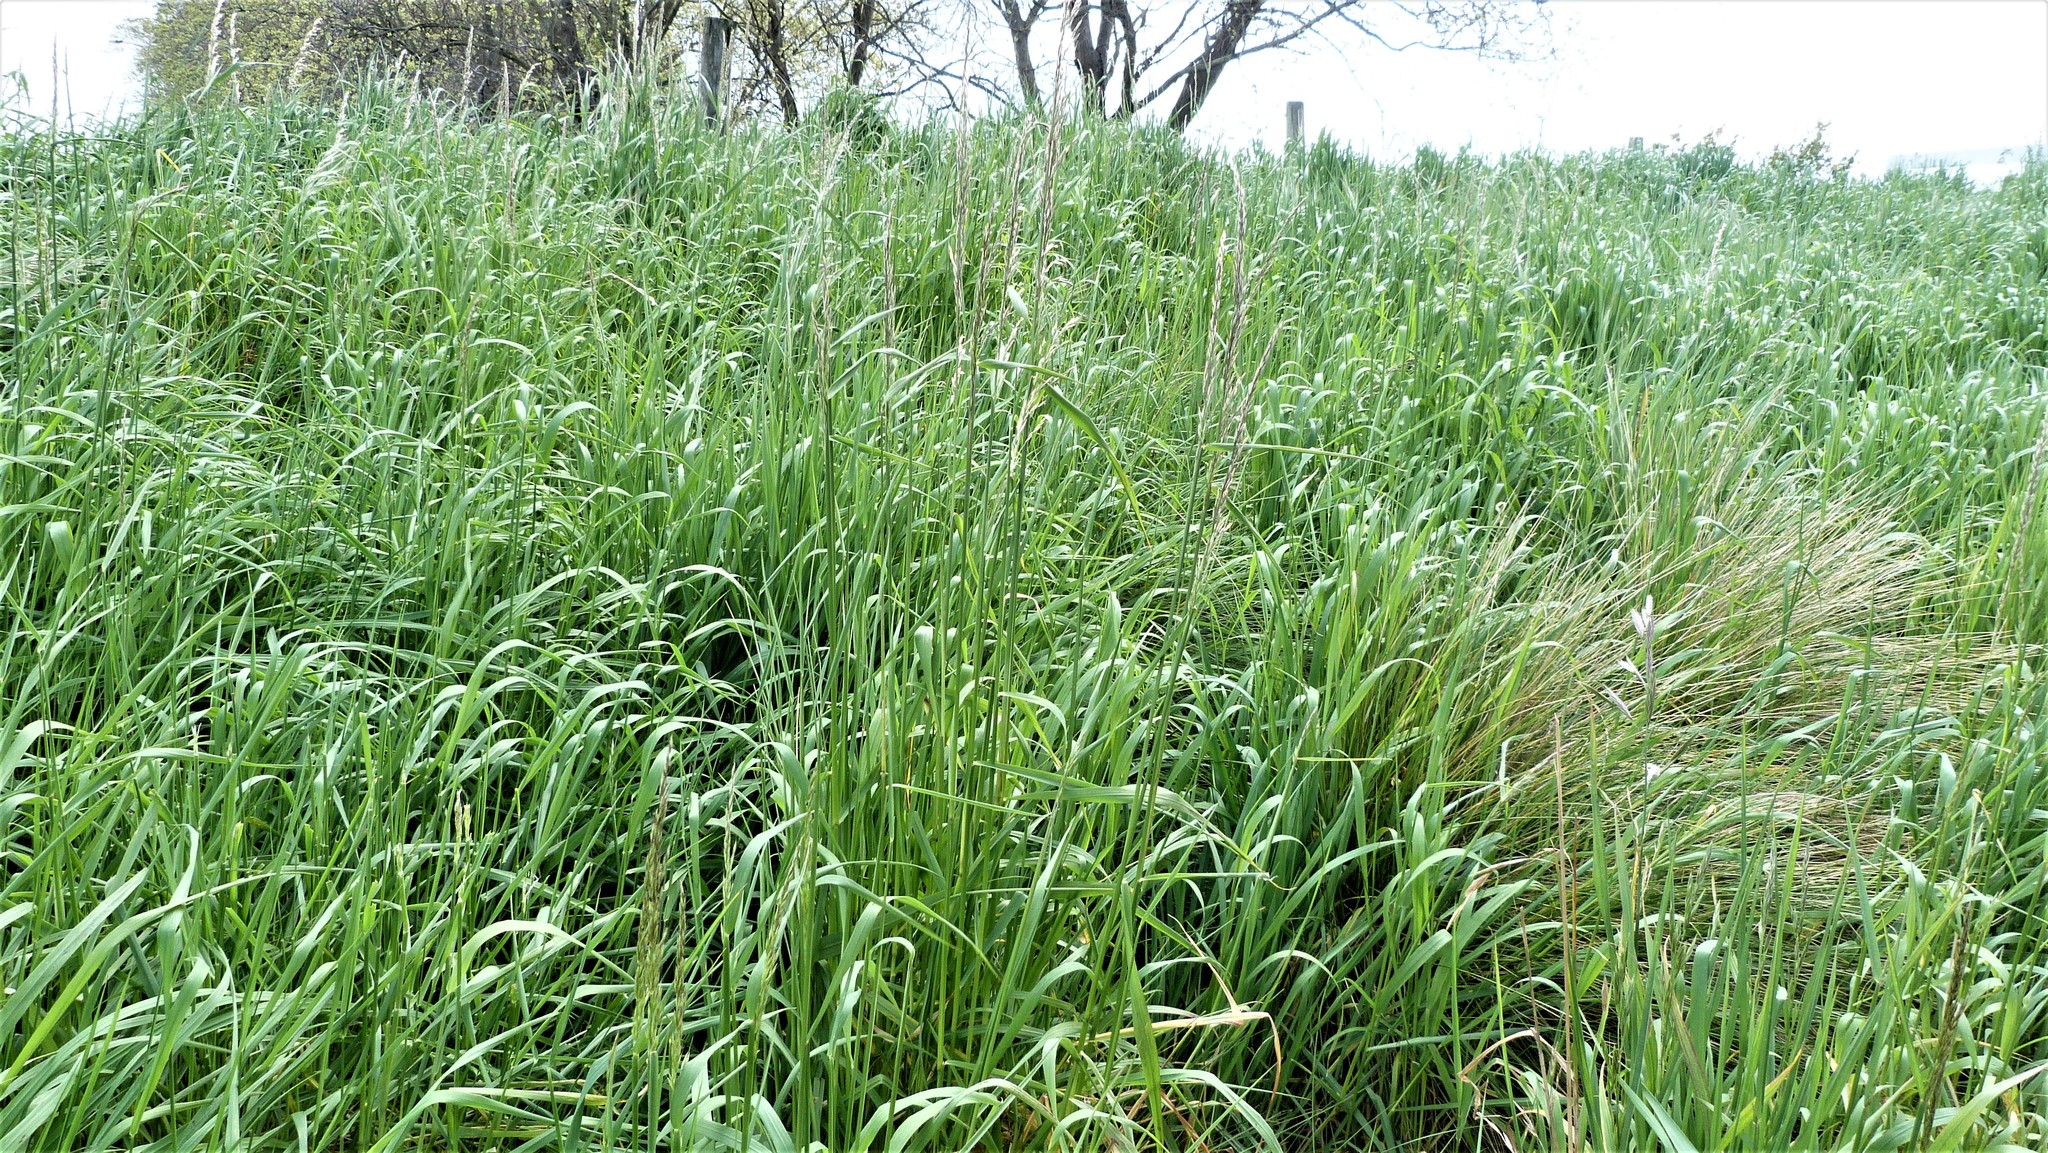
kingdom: Plantae
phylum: Tracheophyta
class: Liliopsida
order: Poales
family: Poaceae
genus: Arrhenatherum
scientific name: Arrhenatherum elatius
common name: Tall oatgrass
